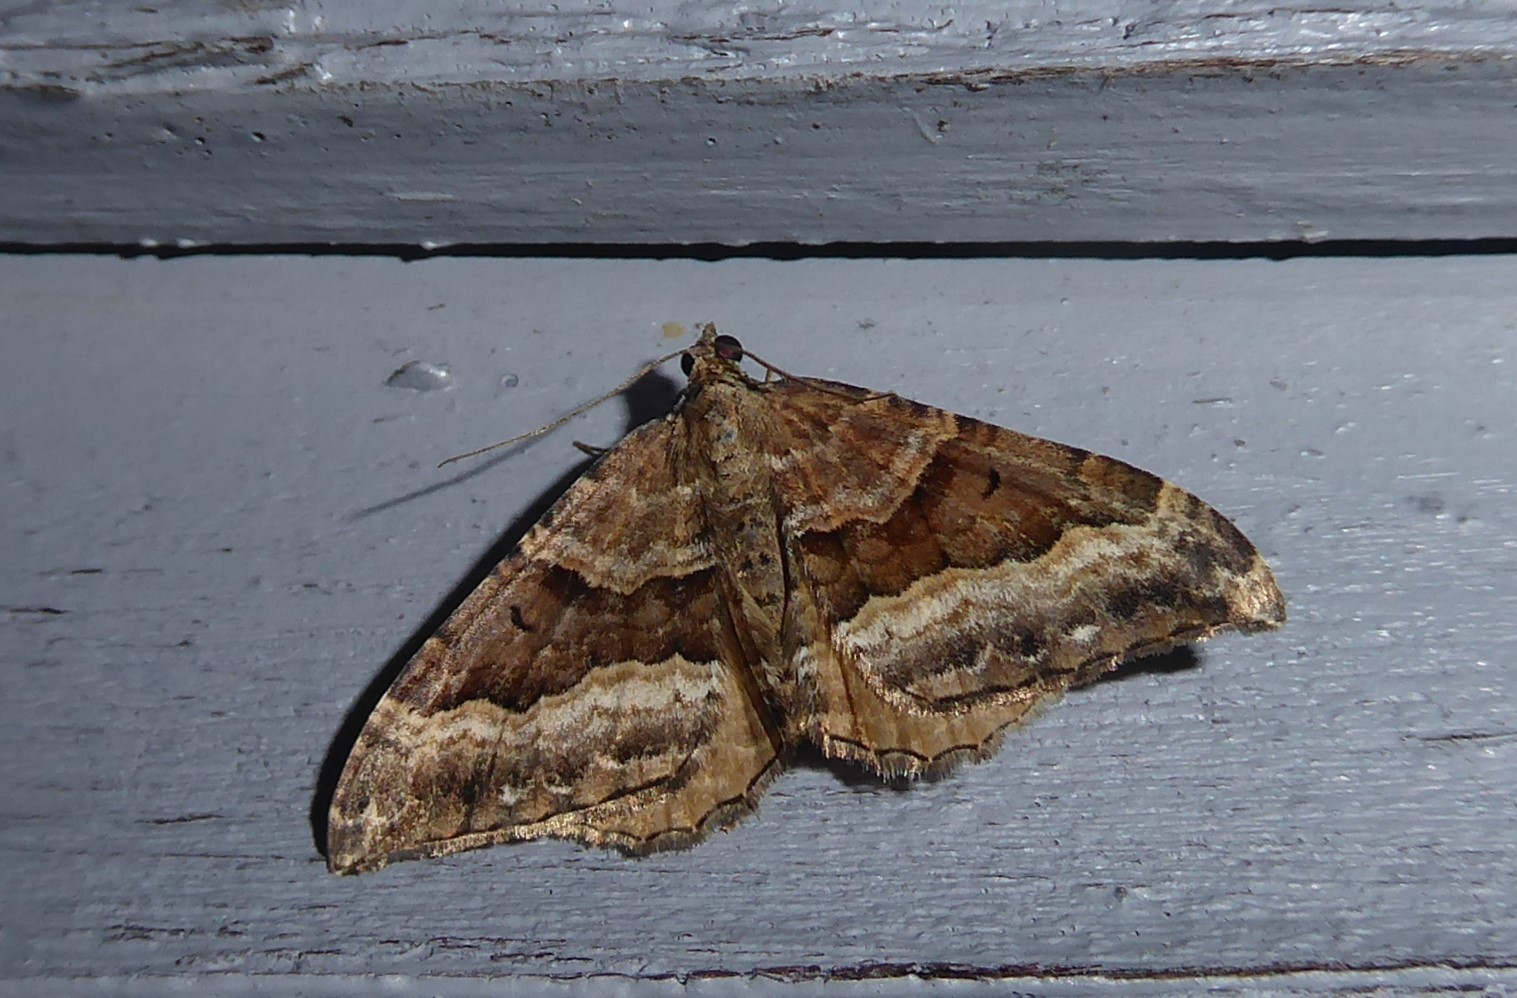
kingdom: Animalia
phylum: Arthropoda
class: Insecta
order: Lepidoptera
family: Geometridae
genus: Hydriomena
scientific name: Hydriomena deltoidata
